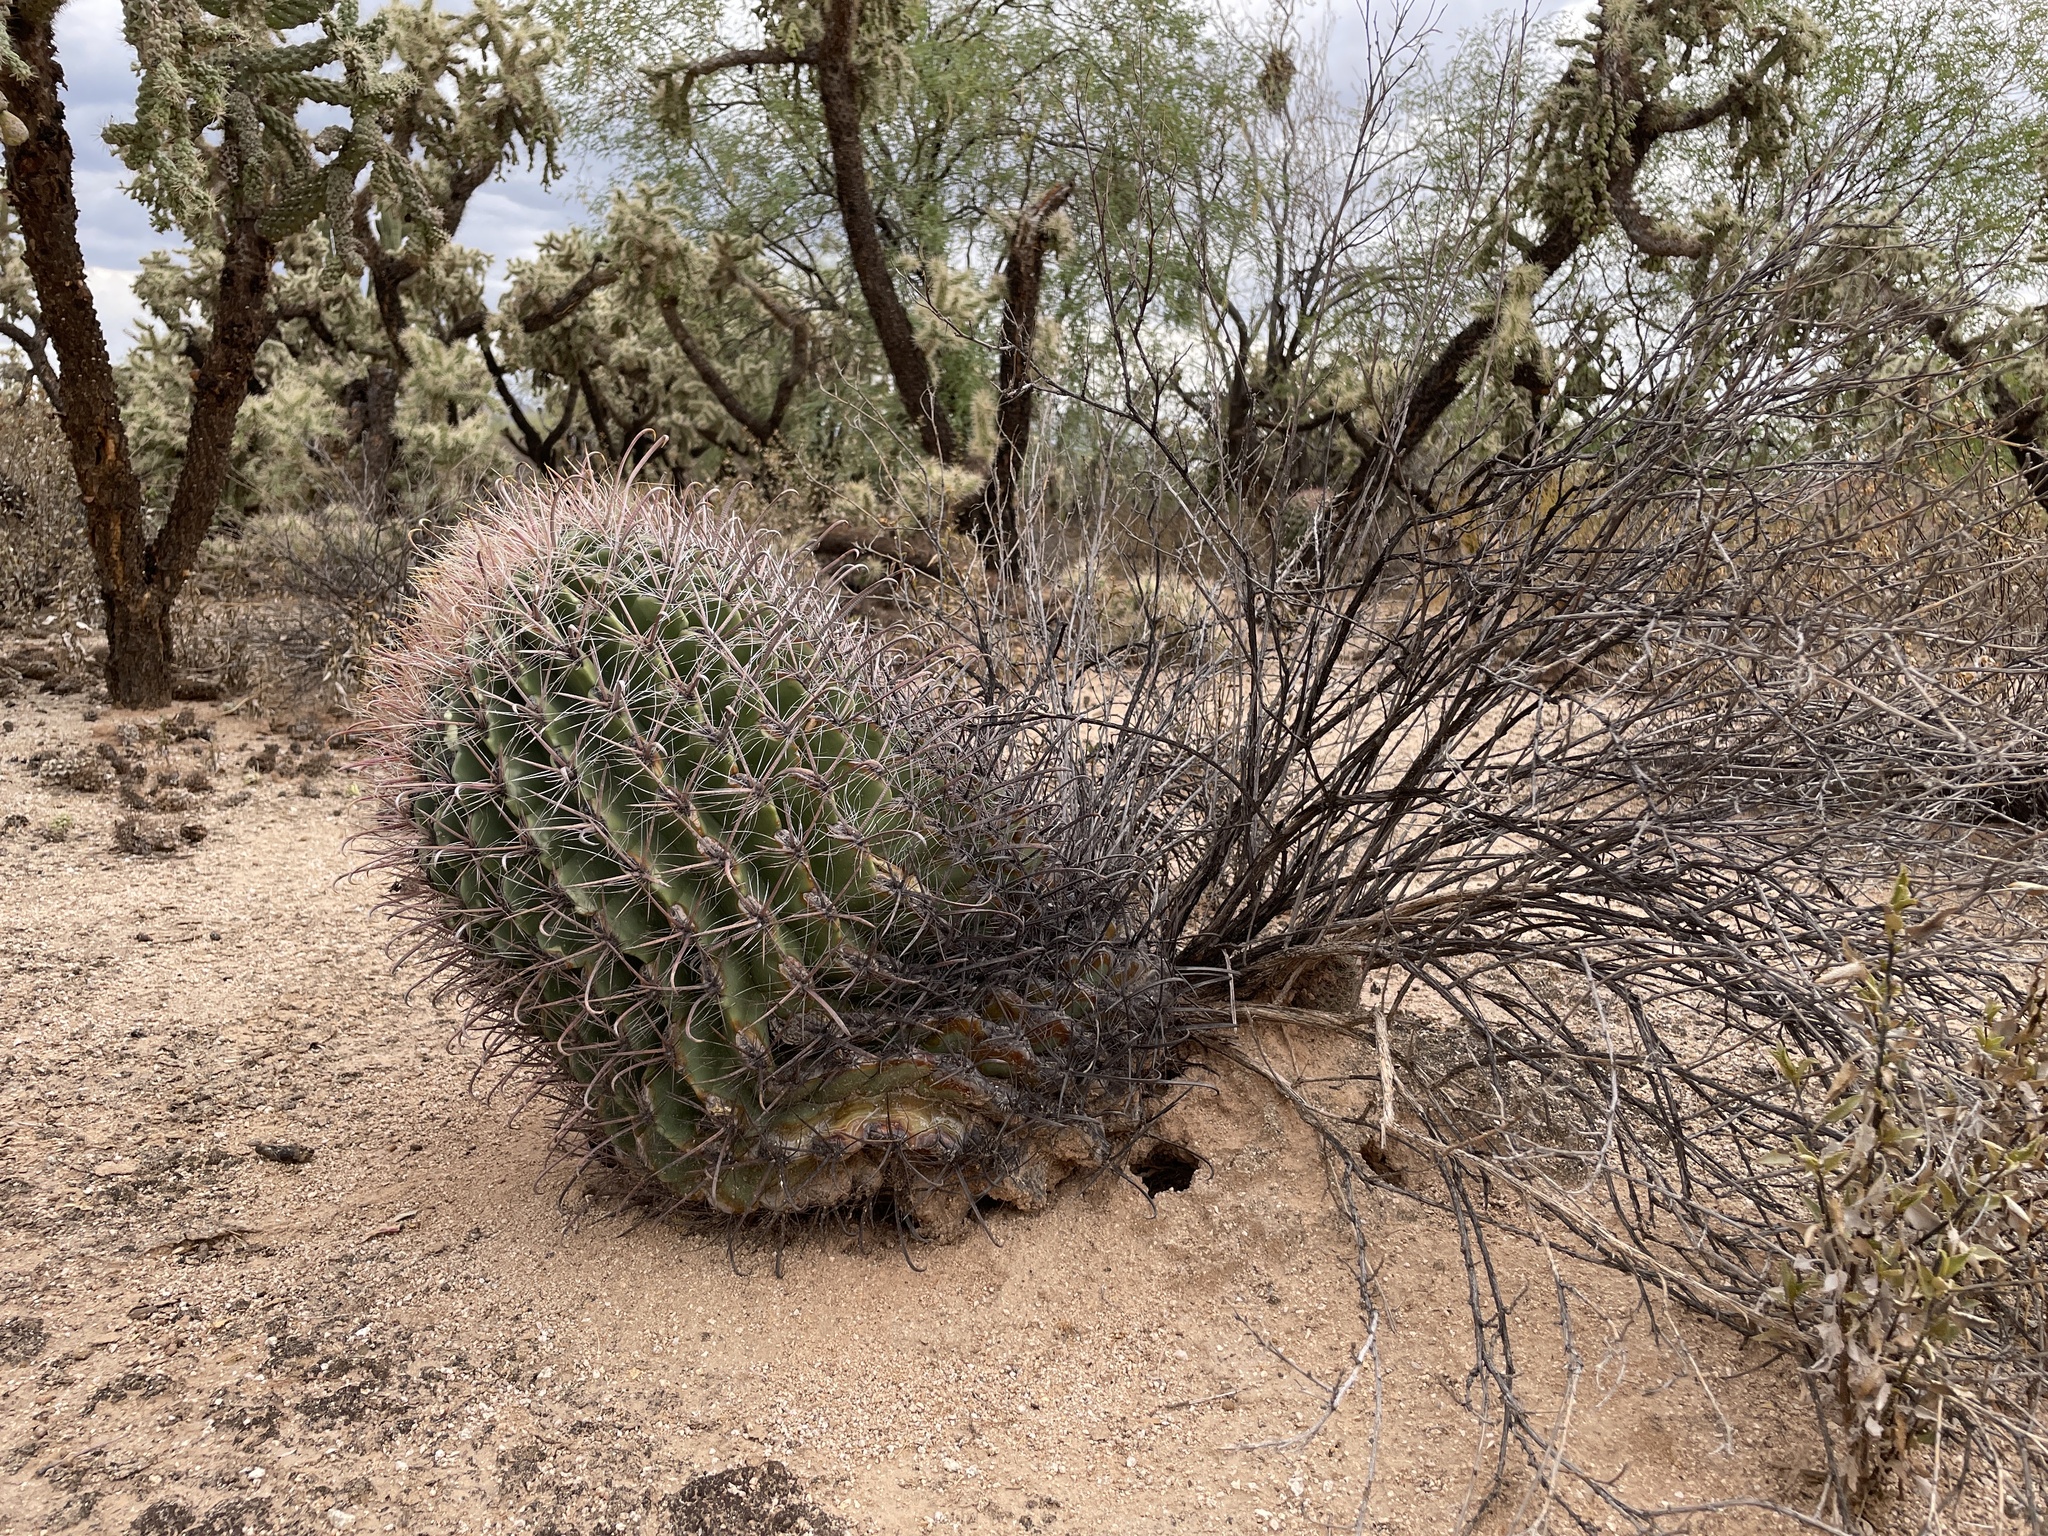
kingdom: Plantae
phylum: Tracheophyta
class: Magnoliopsida
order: Caryophyllales
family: Cactaceae
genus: Ferocactus
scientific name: Ferocactus wislizeni
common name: Candy barrel cactus
